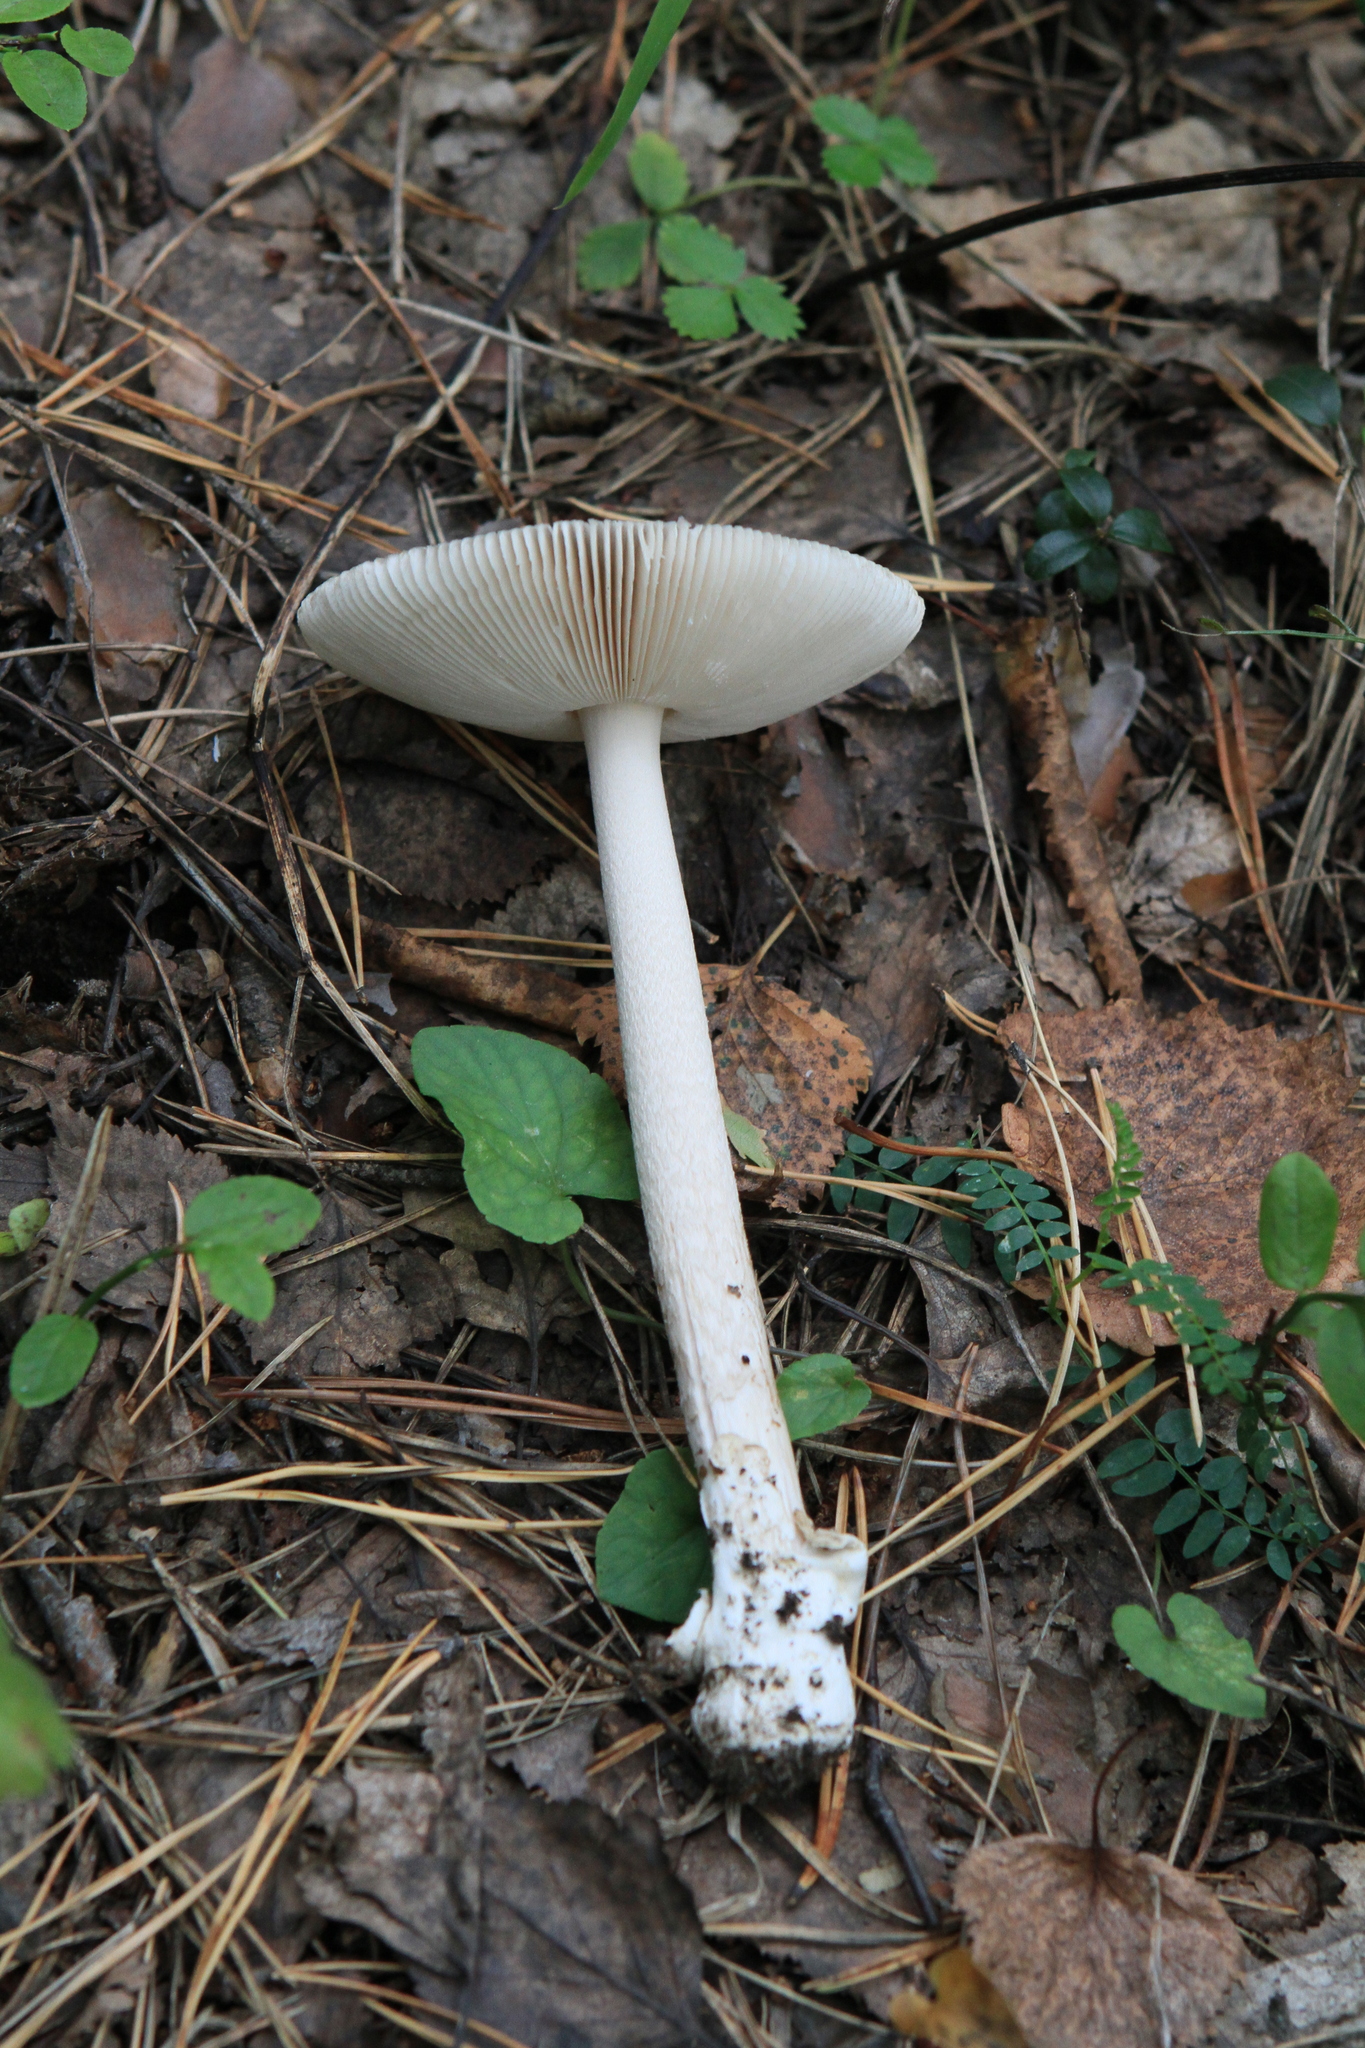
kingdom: Fungi
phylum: Basidiomycota
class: Agaricomycetes
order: Agaricales
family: Amanitaceae
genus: Amanita
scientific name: Amanita vaginata
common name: Grisette
